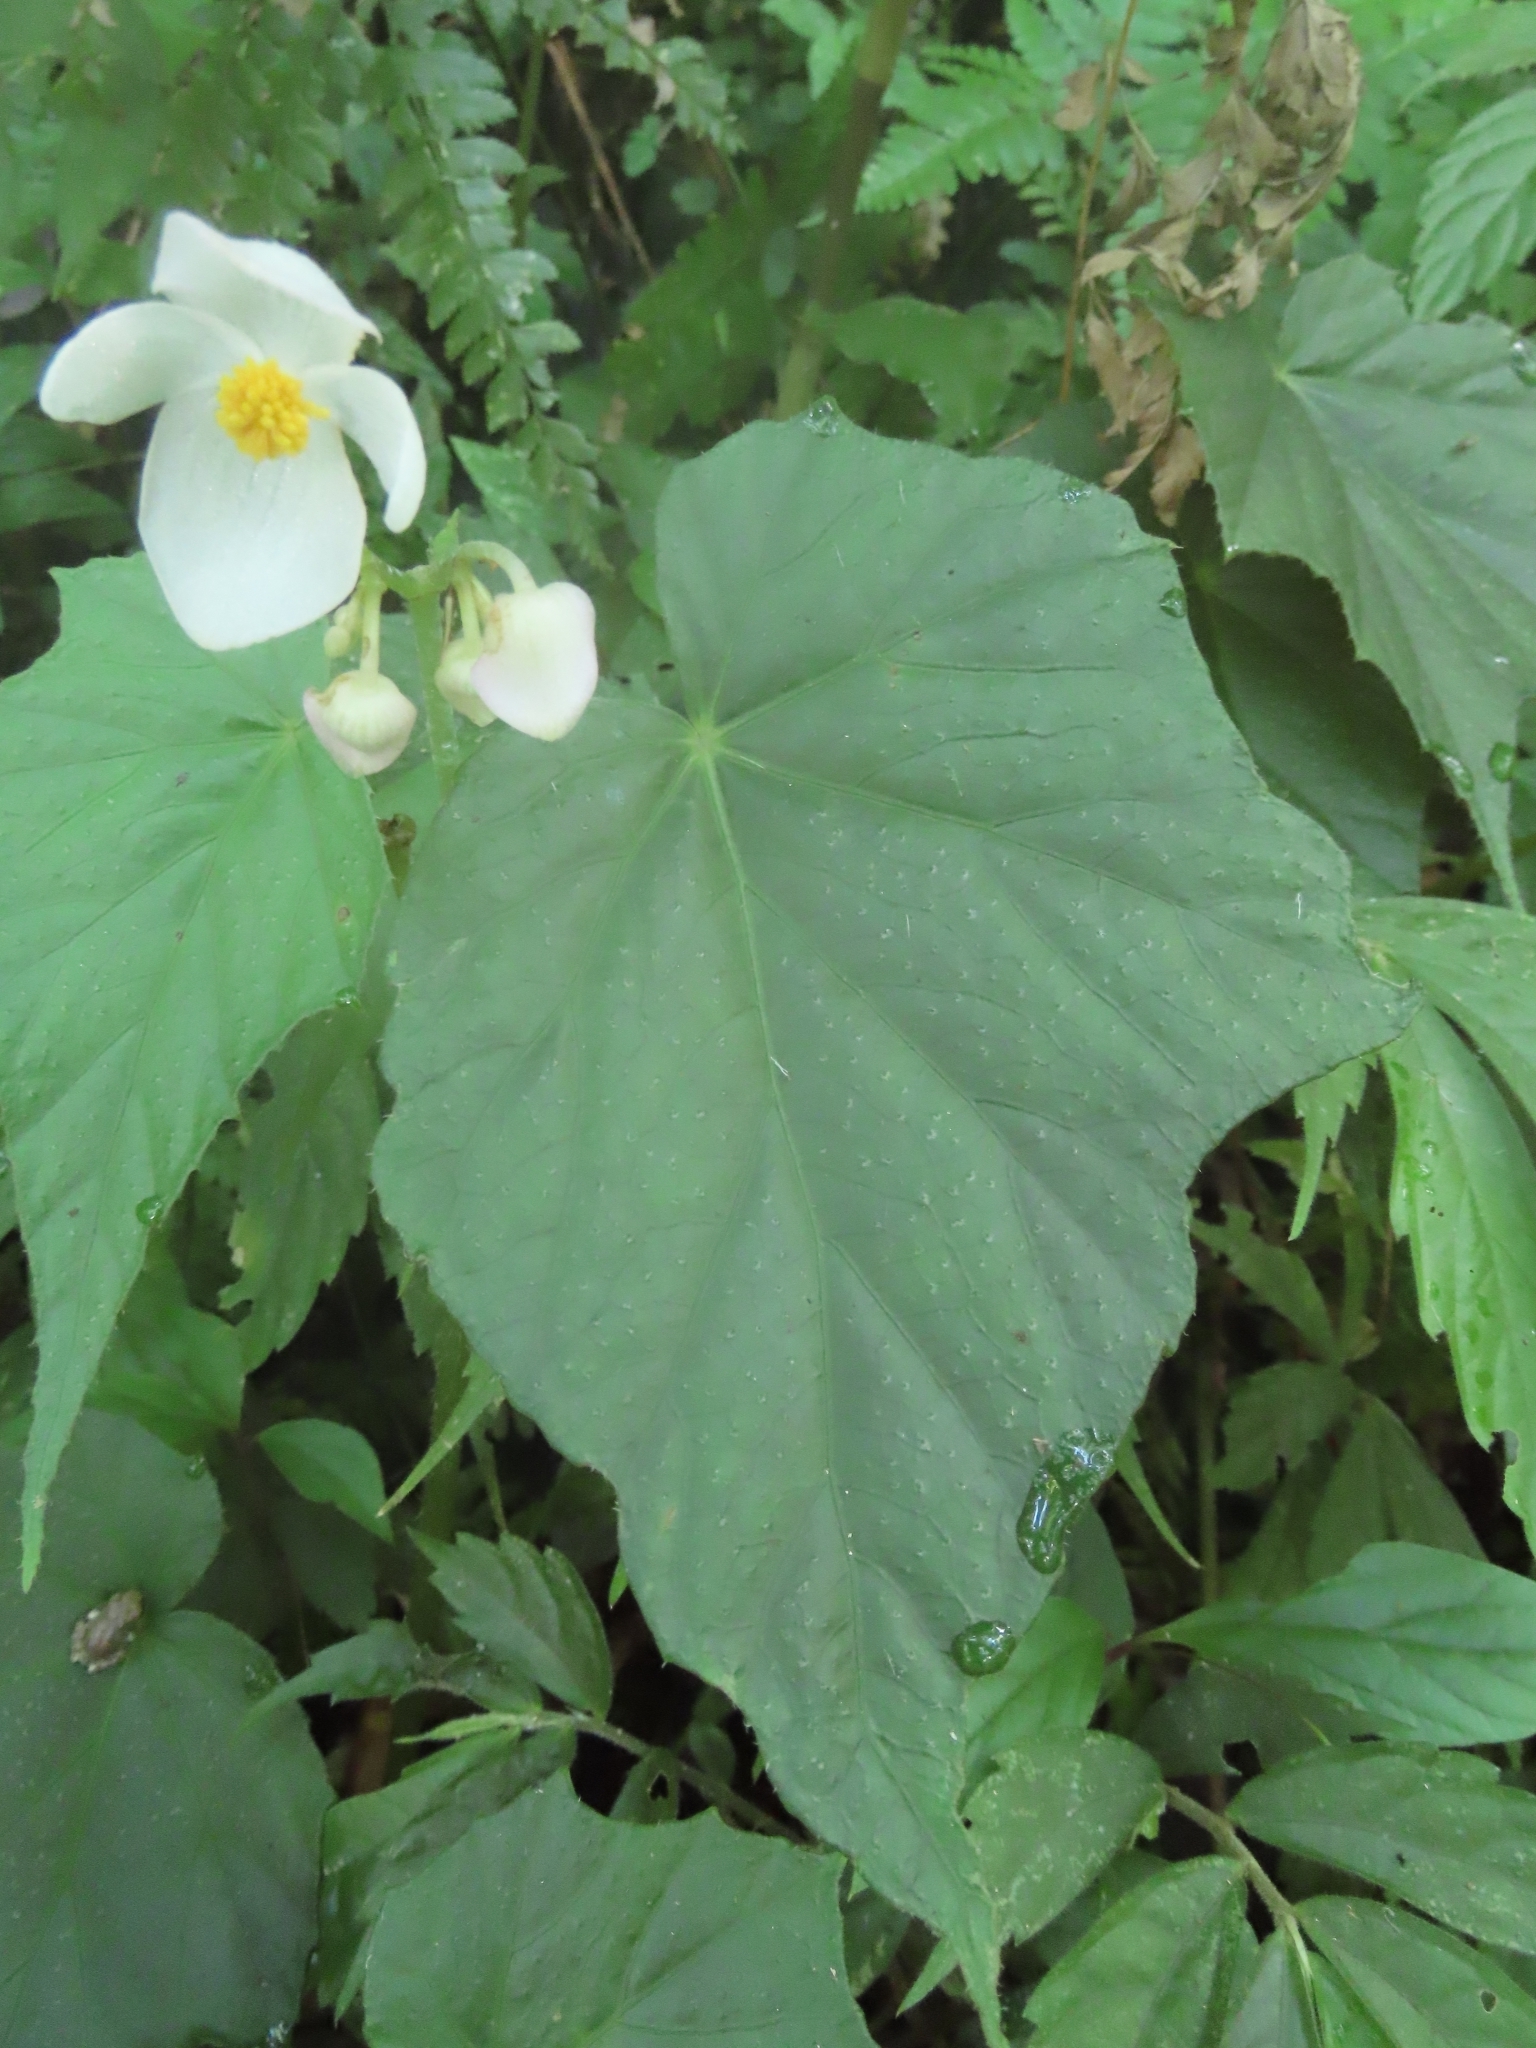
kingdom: Plantae
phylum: Tracheophyta
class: Magnoliopsida
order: Cucurbitales
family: Begoniaceae
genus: Begonia
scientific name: Begonia formosana
